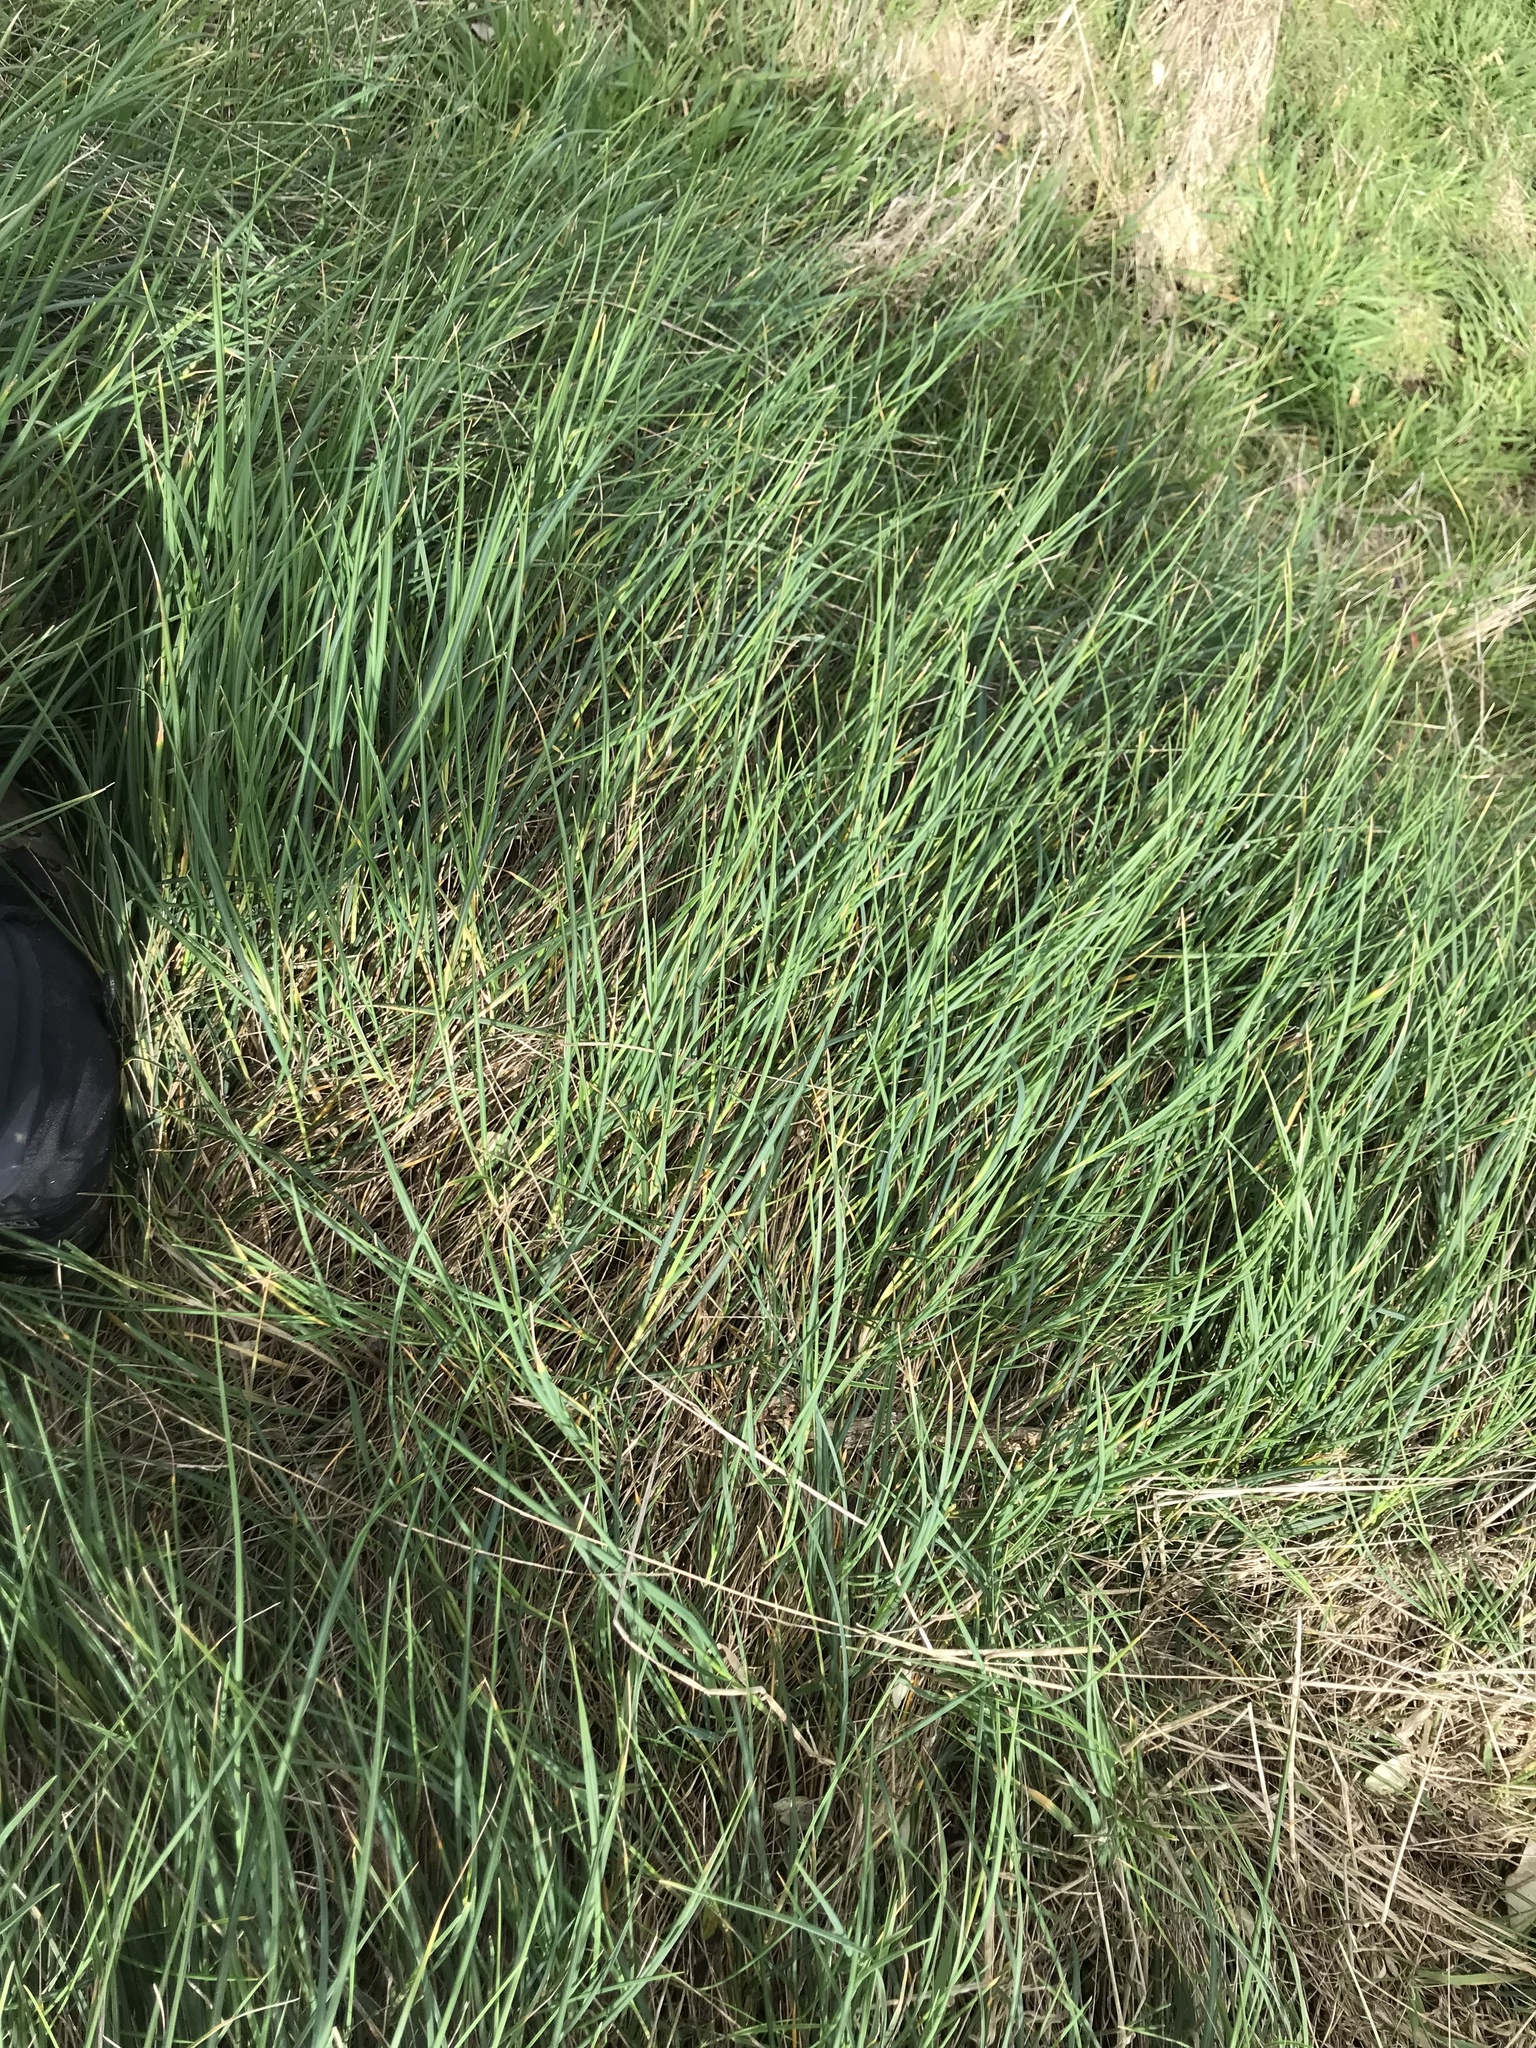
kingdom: Plantae
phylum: Tracheophyta
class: Liliopsida
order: Poales
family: Poaceae
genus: Poa
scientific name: Poa anceps
